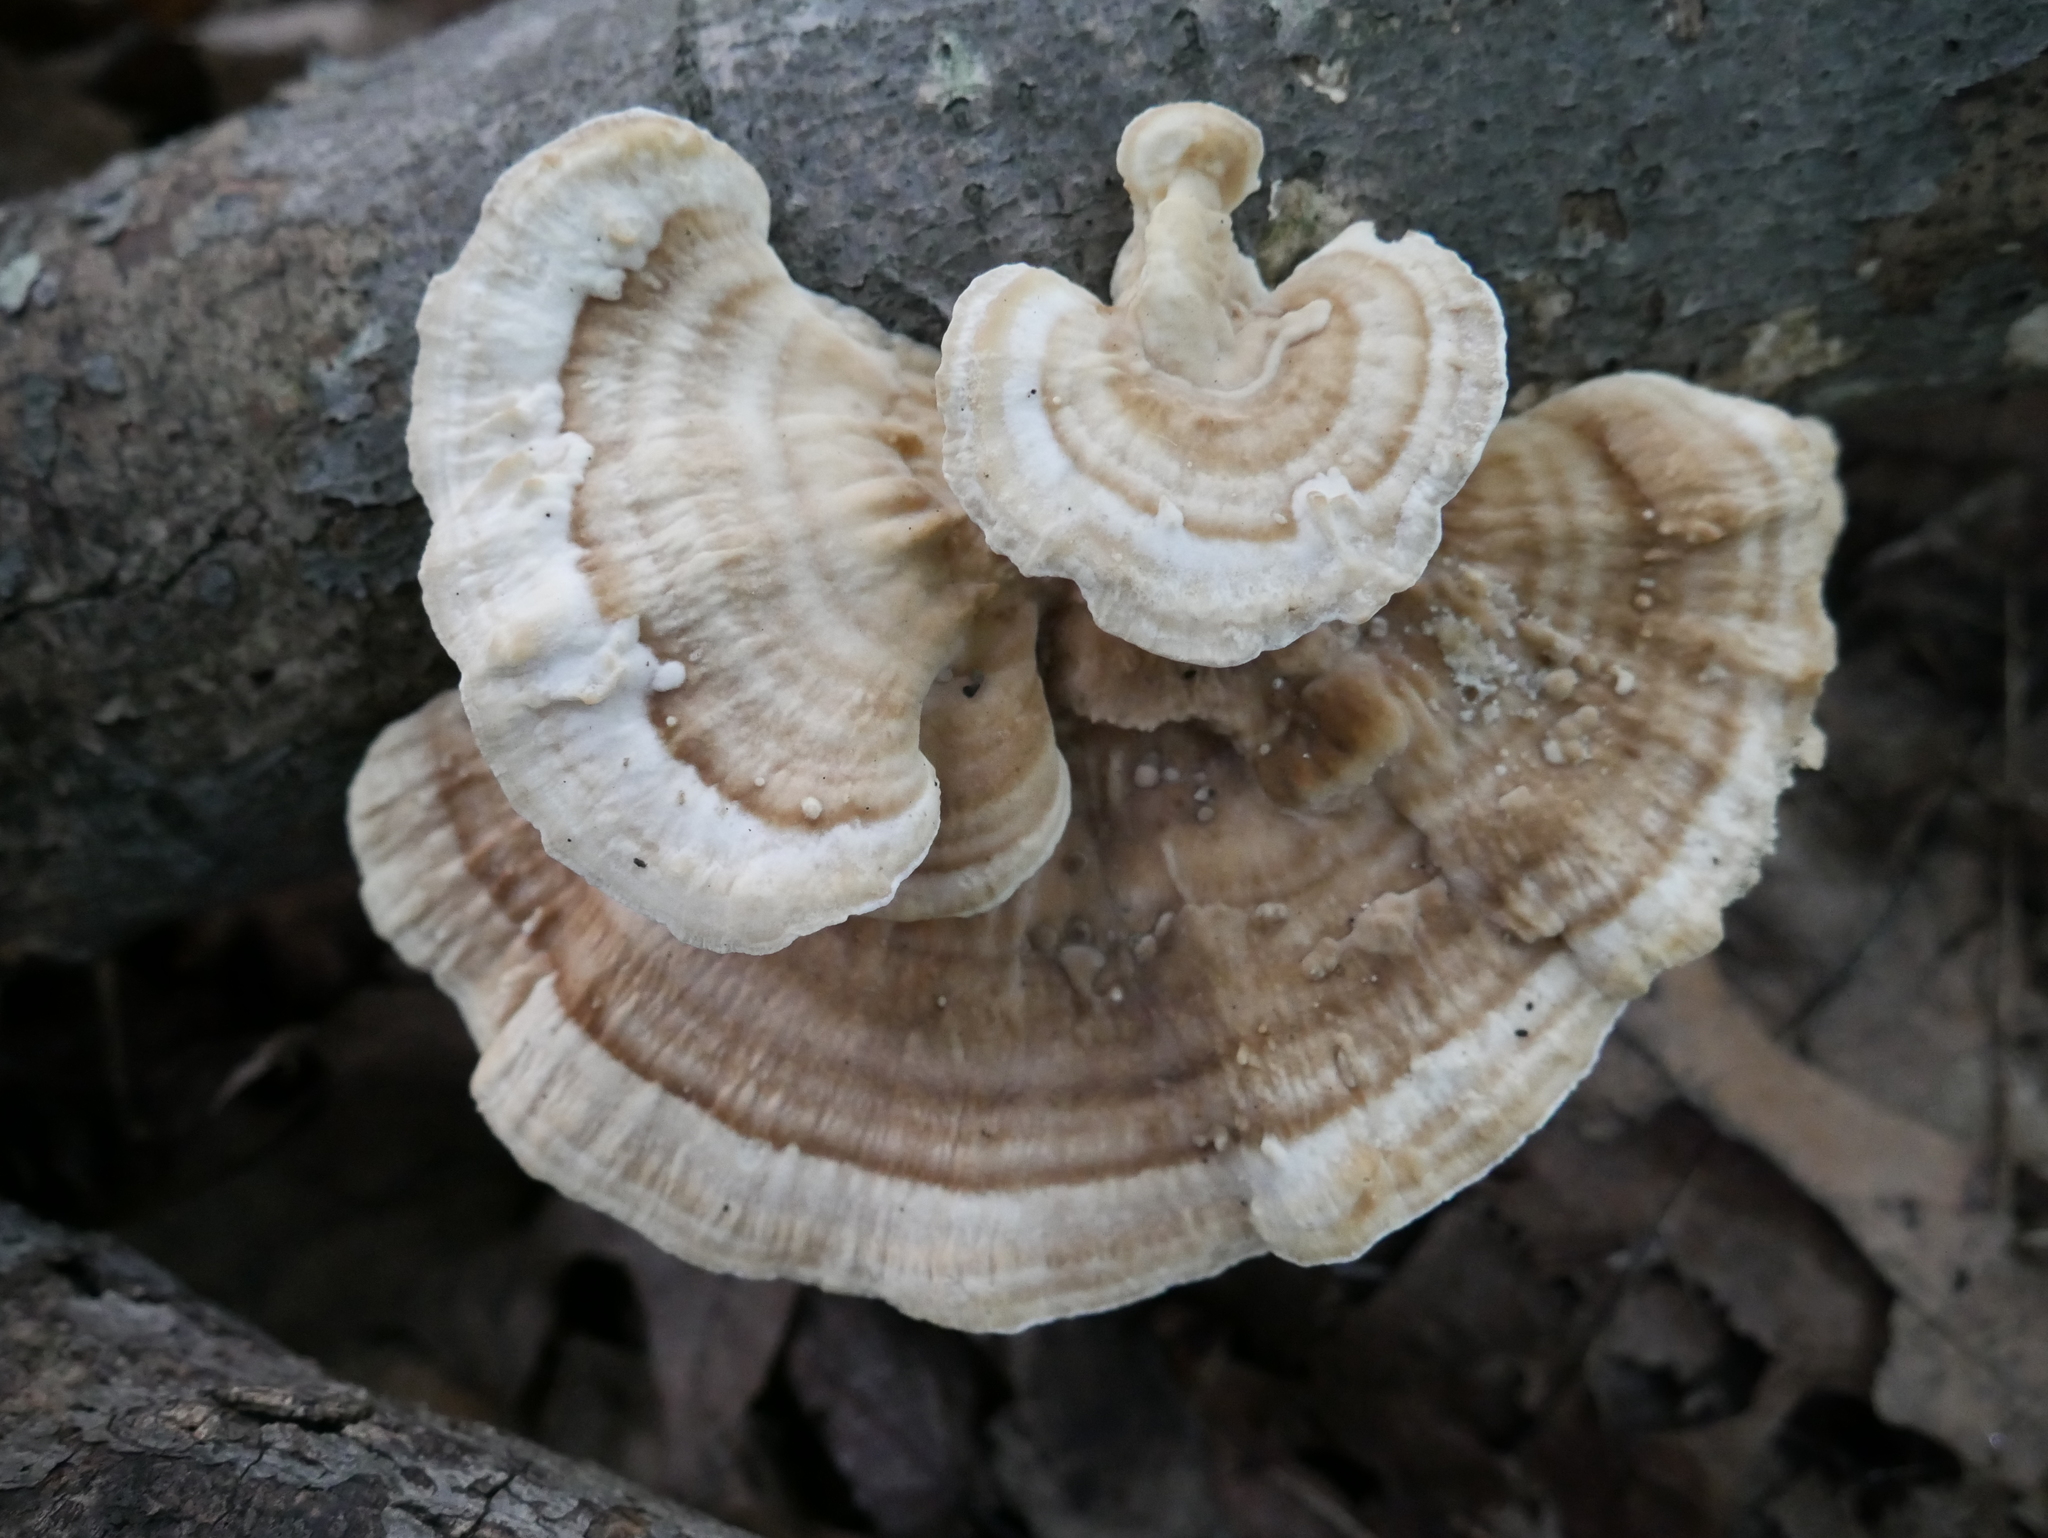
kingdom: Fungi
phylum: Basidiomycota
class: Agaricomycetes
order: Polyporales
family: Polyporaceae
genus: Trametes
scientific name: Trametes lactinea
